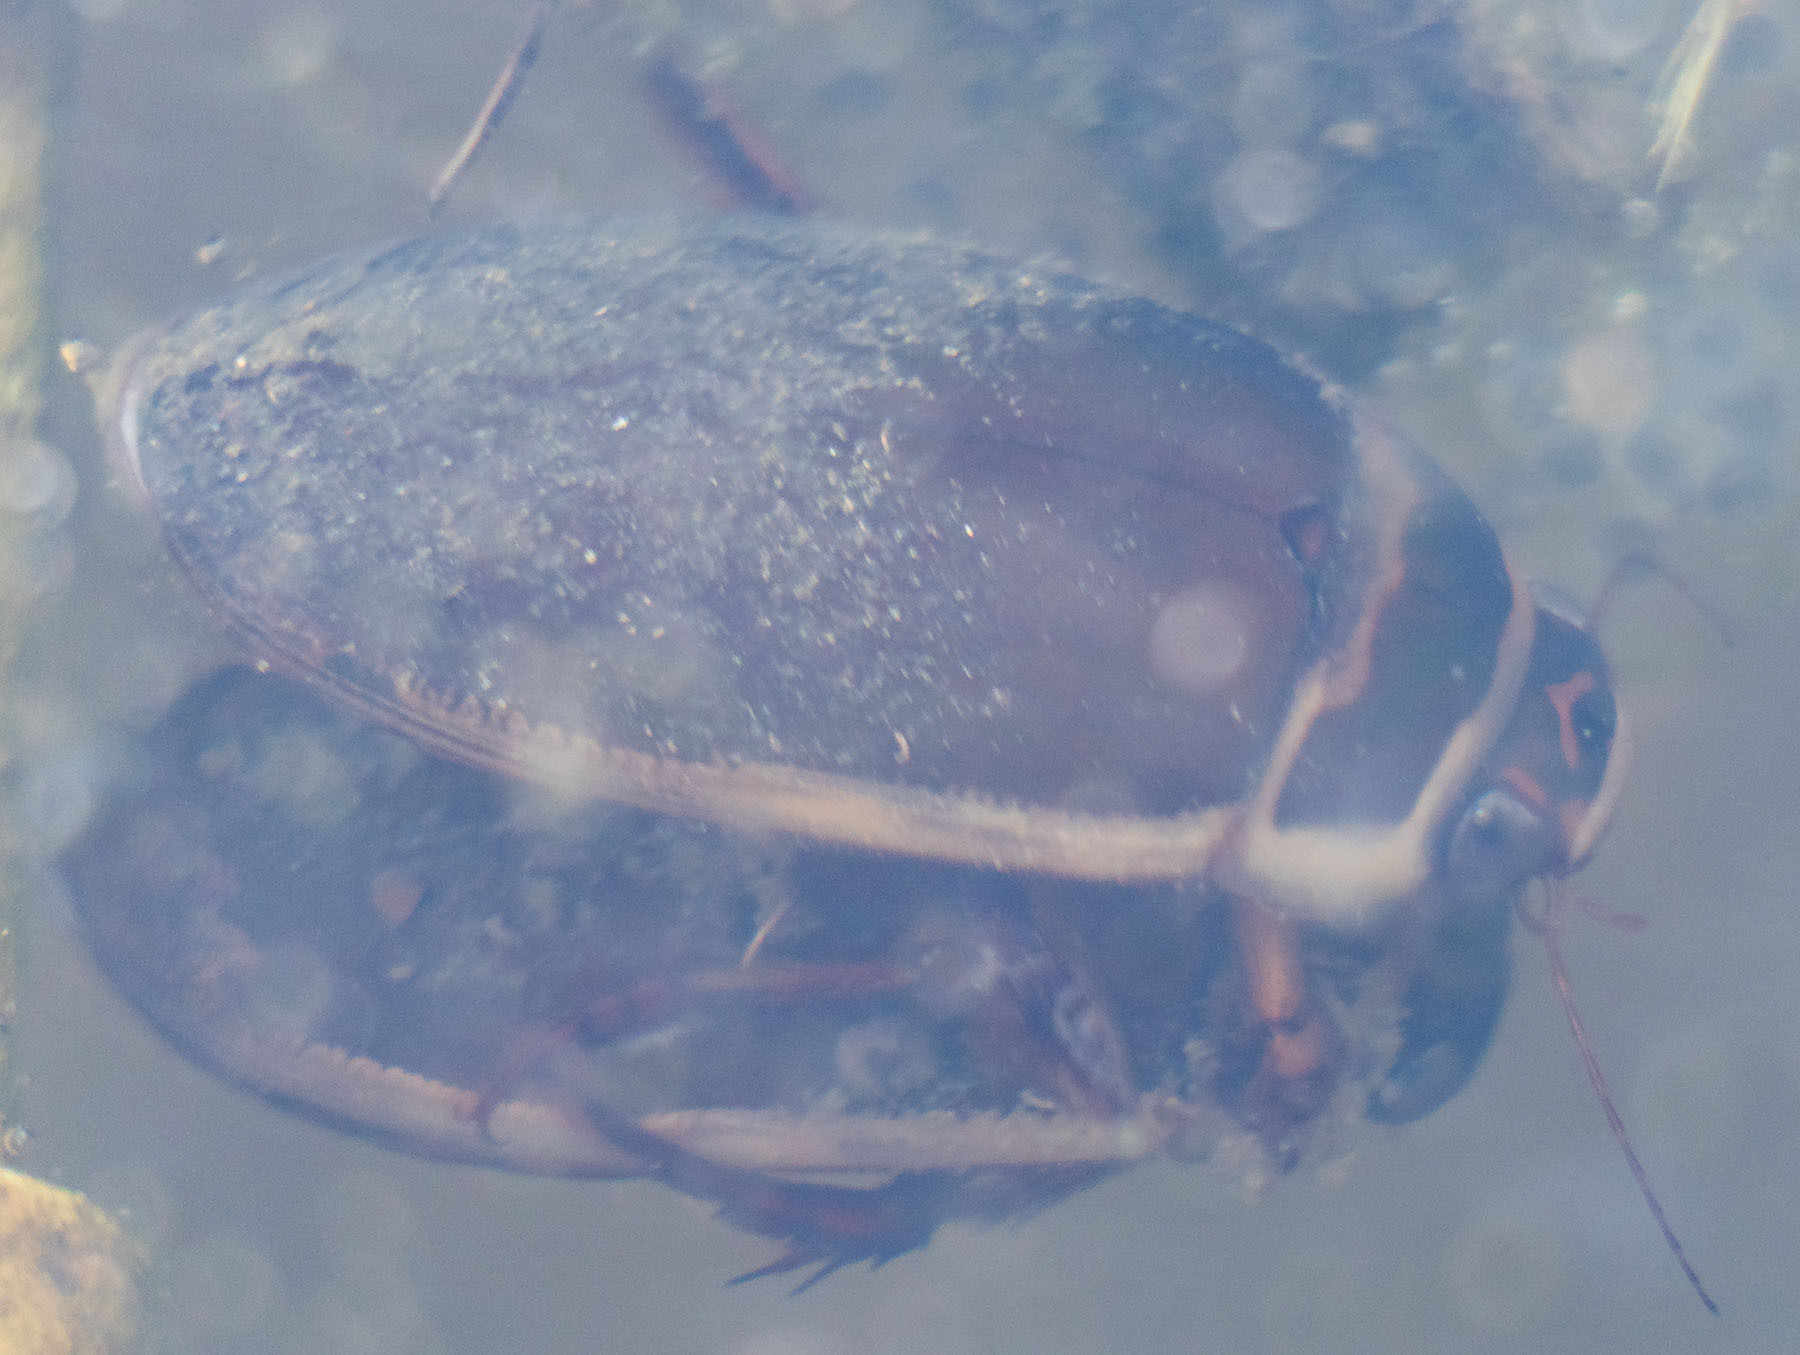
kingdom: Animalia
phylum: Arthropoda
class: Insecta
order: Coleoptera
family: Dytiscidae
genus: Dytiscus
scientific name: Dytiscus marginicollis
